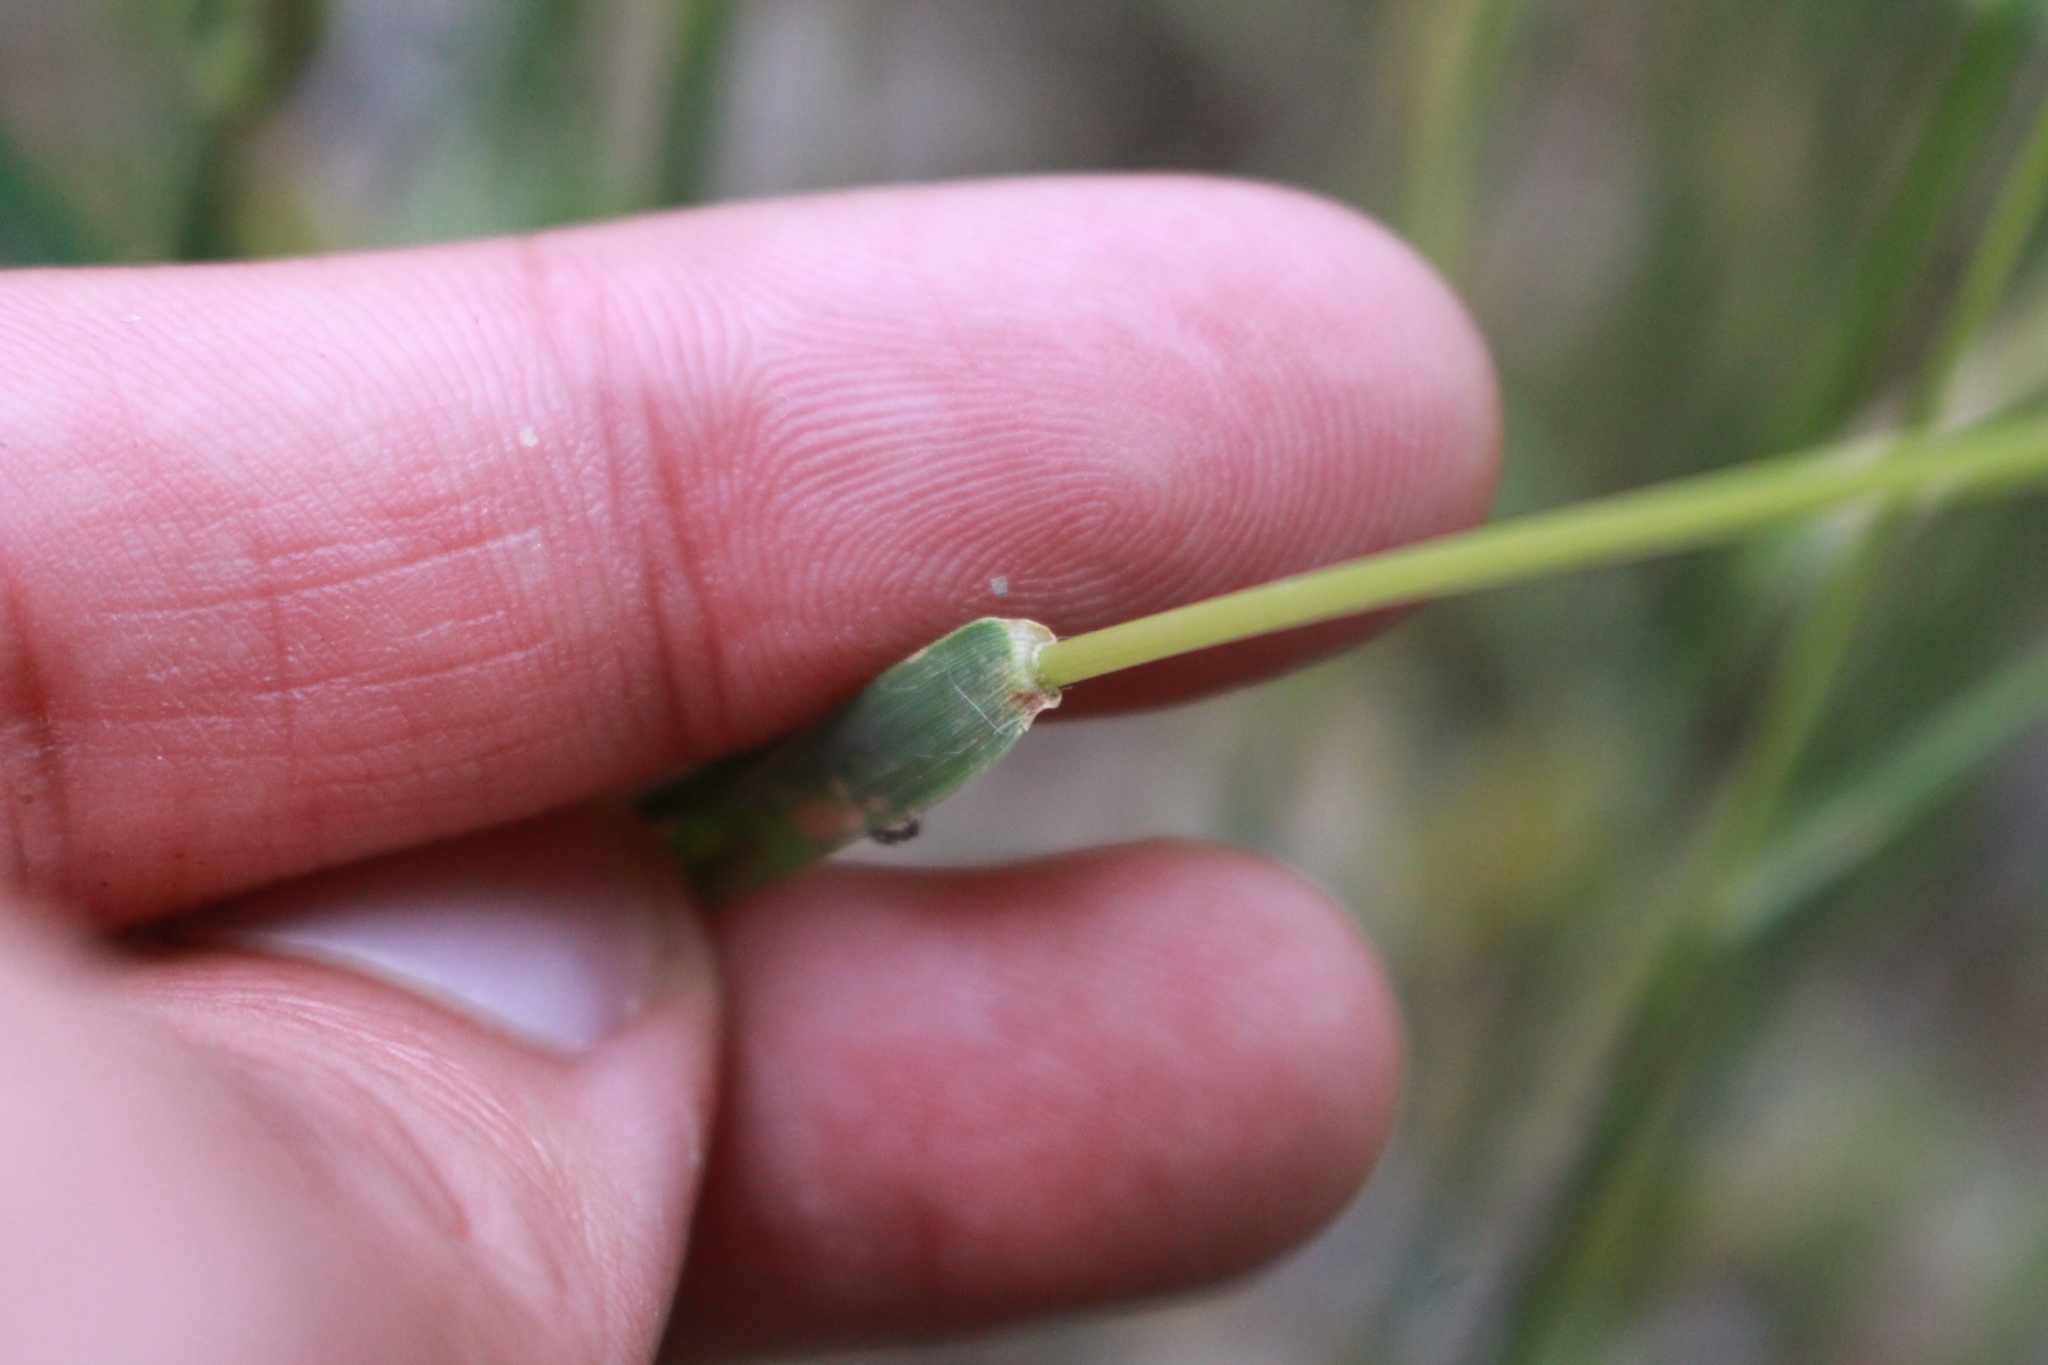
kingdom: Plantae
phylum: Tracheophyta
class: Liliopsida
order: Poales
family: Poaceae
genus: Aegilops
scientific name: Aegilops cylindrica
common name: Jointed goatgrass
